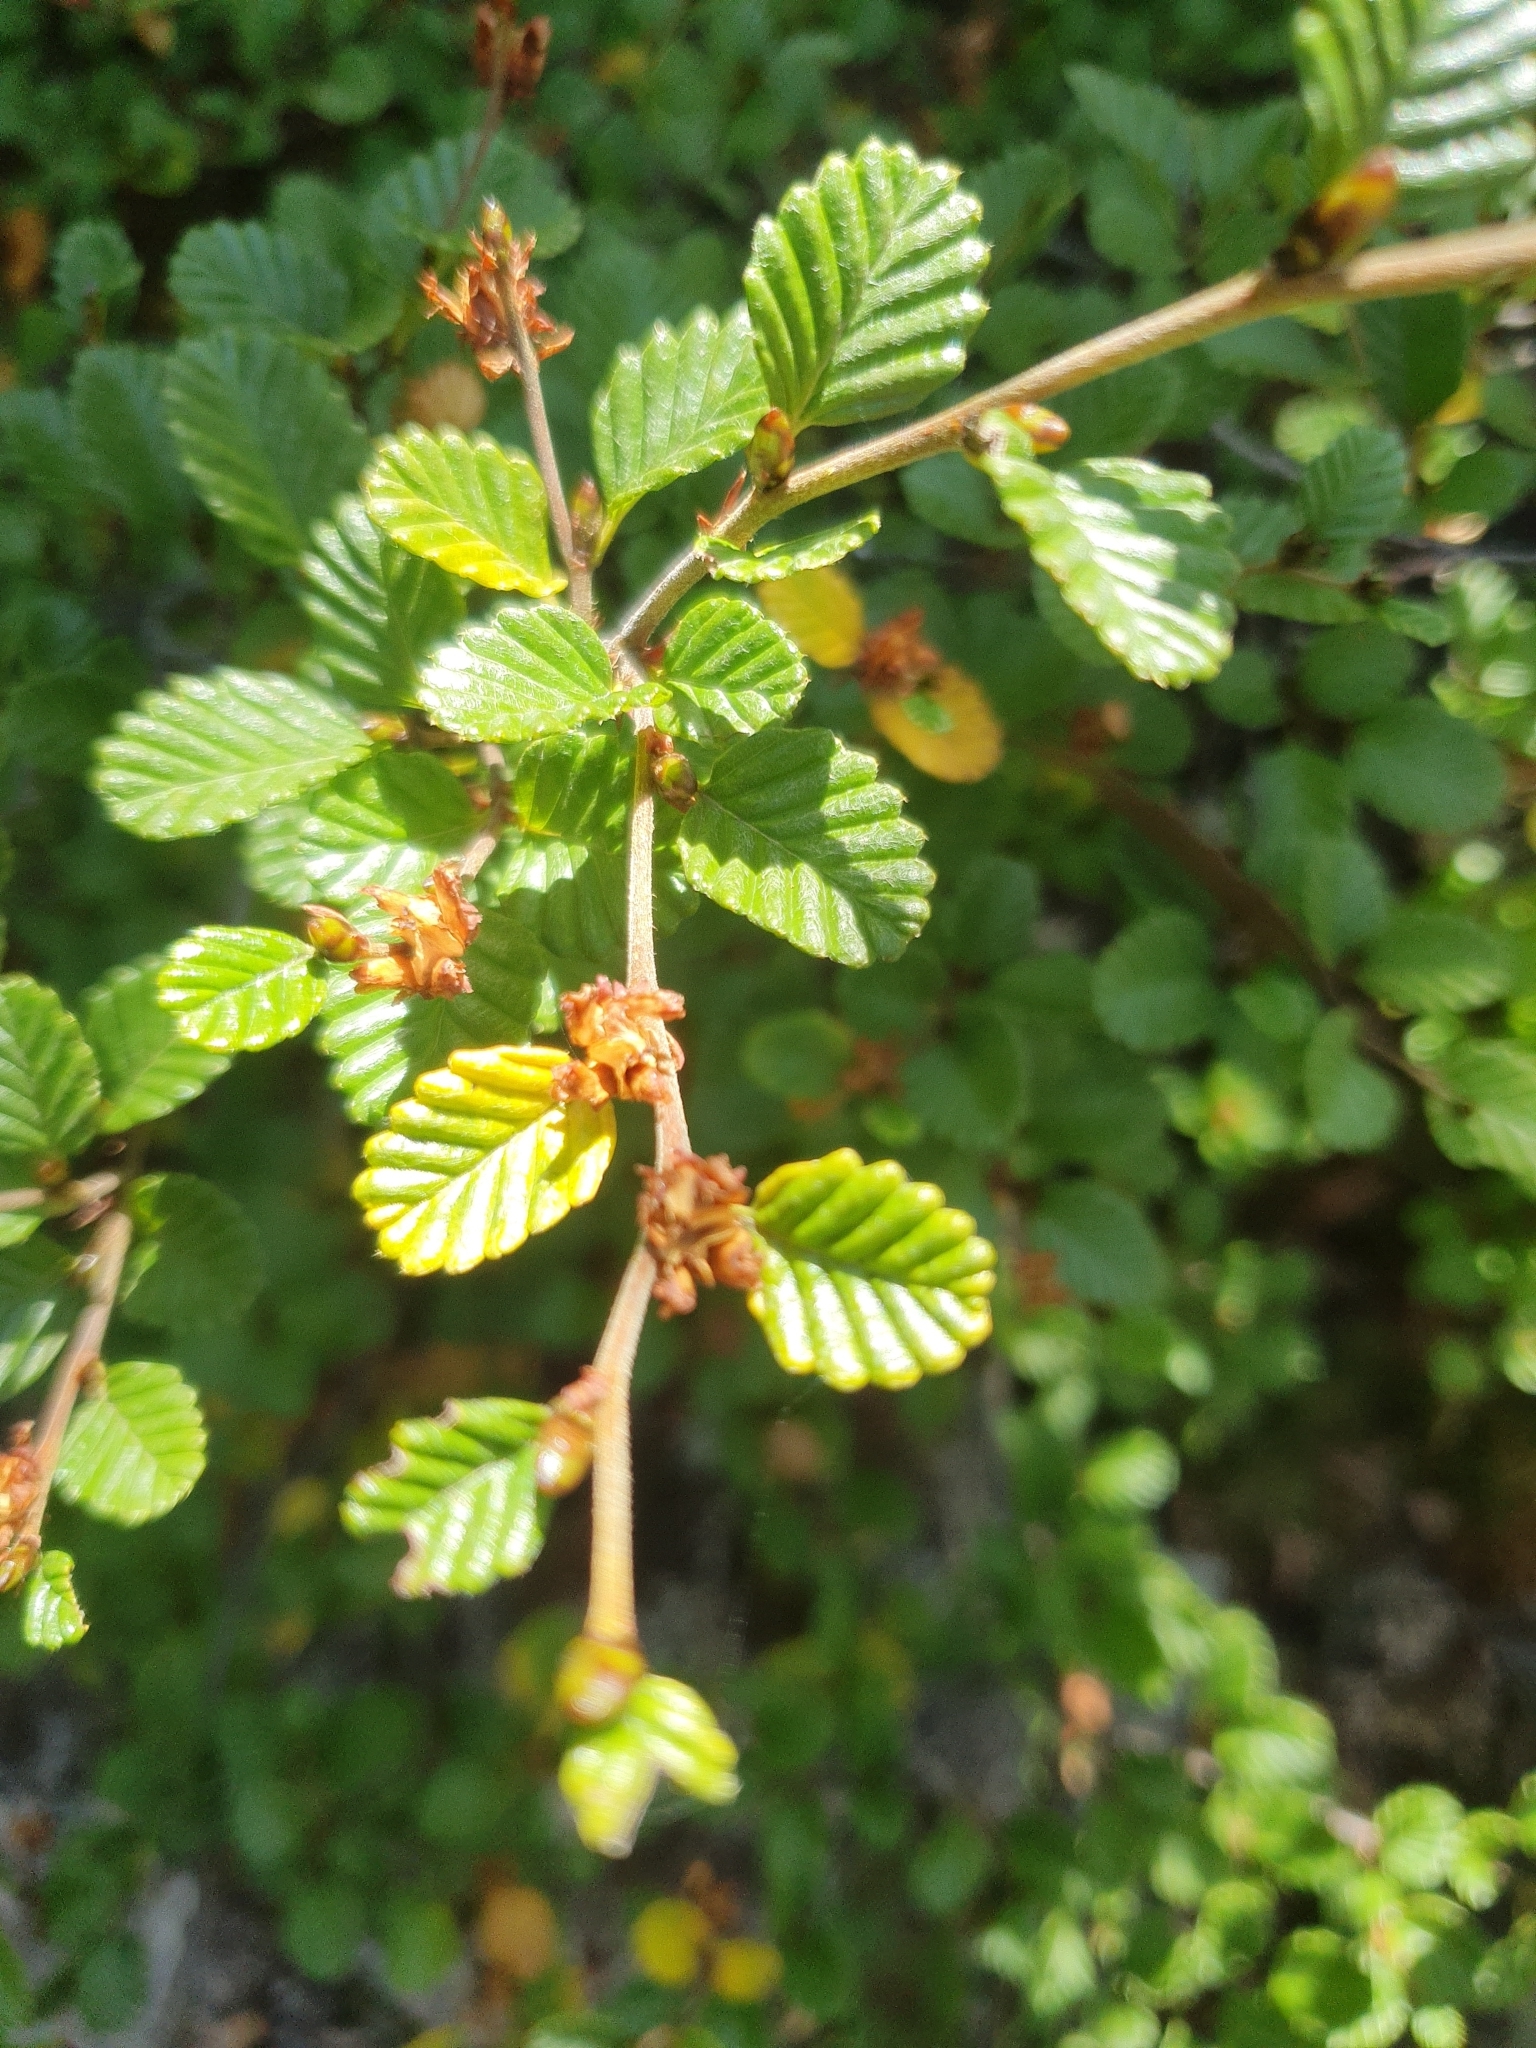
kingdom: Plantae
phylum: Tracheophyta
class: Magnoliopsida
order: Fagales
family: Nothofagaceae
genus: Nothofagus
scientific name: Nothofagus gunnii
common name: Tanglefoot
